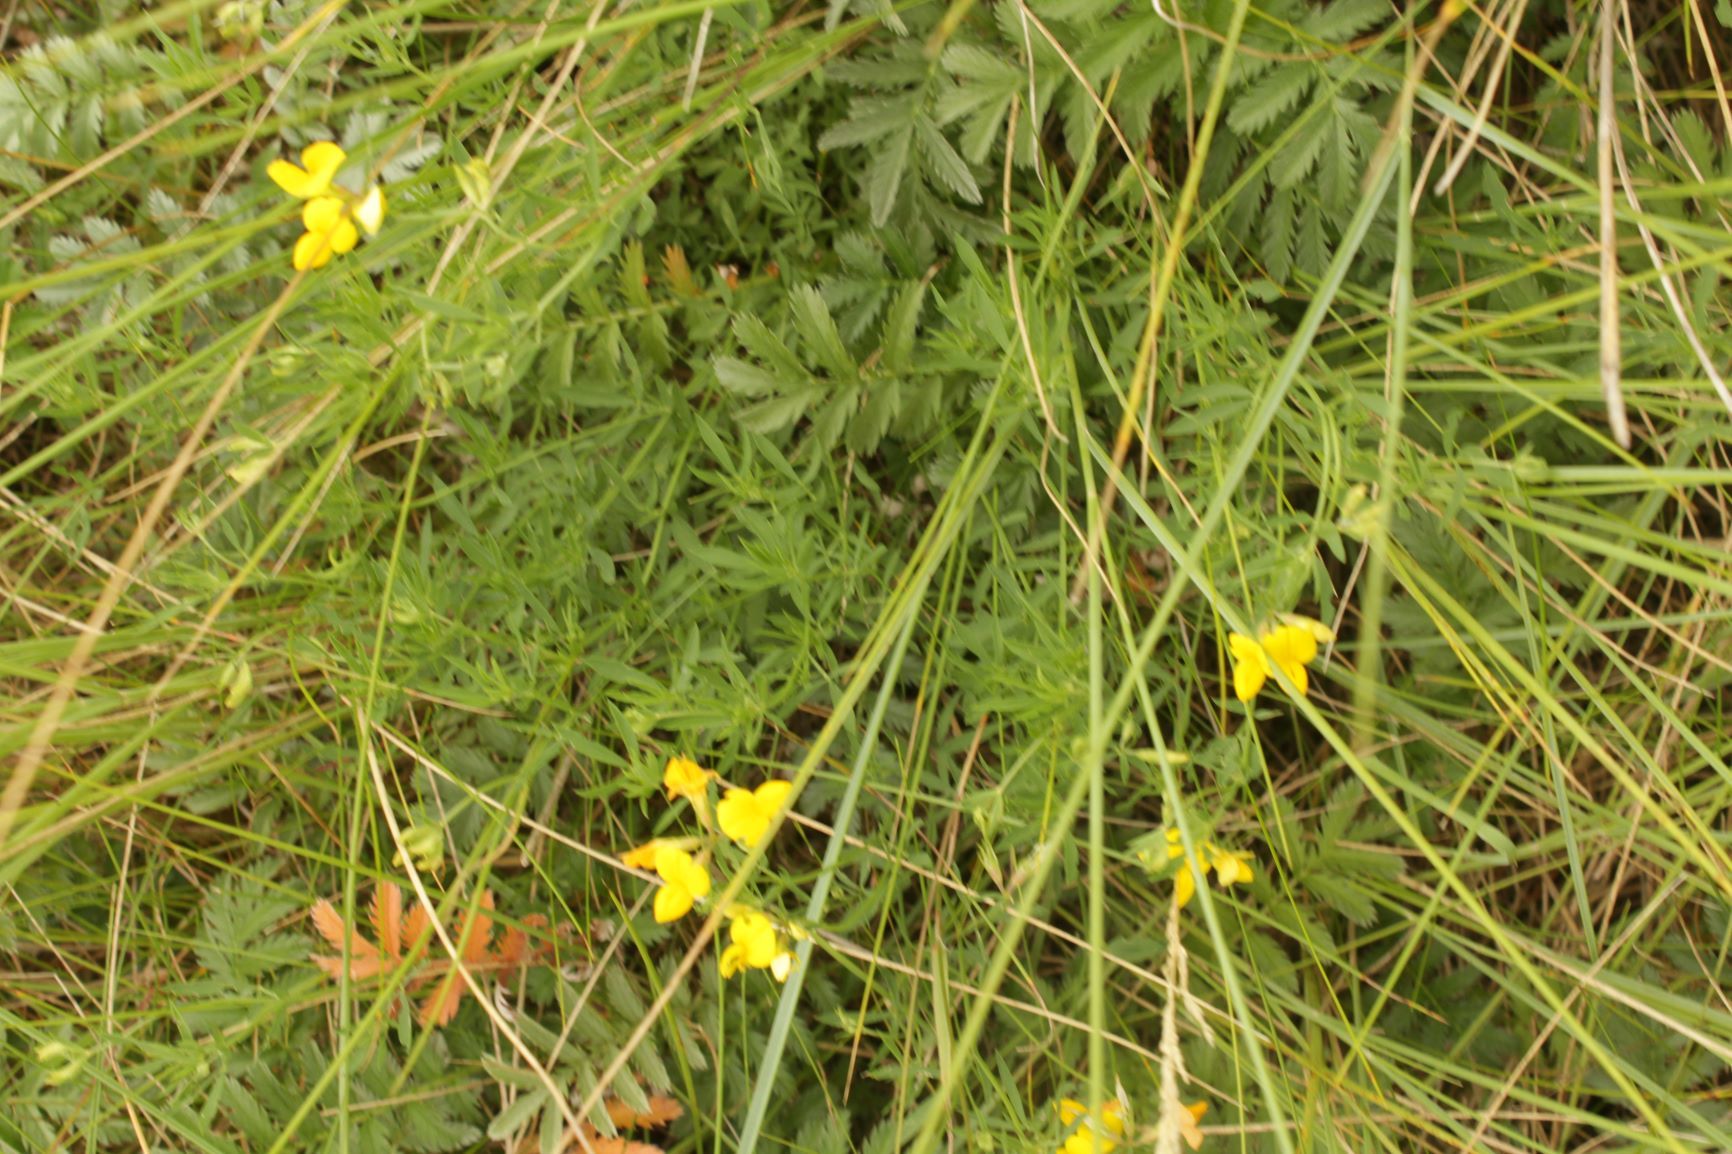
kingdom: Plantae
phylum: Tracheophyta
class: Magnoliopsida
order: Fabales
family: Fabaceae
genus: Lotus
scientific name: Lotus tenuis
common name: Narrow-leaved bird's-foot-trefoil
